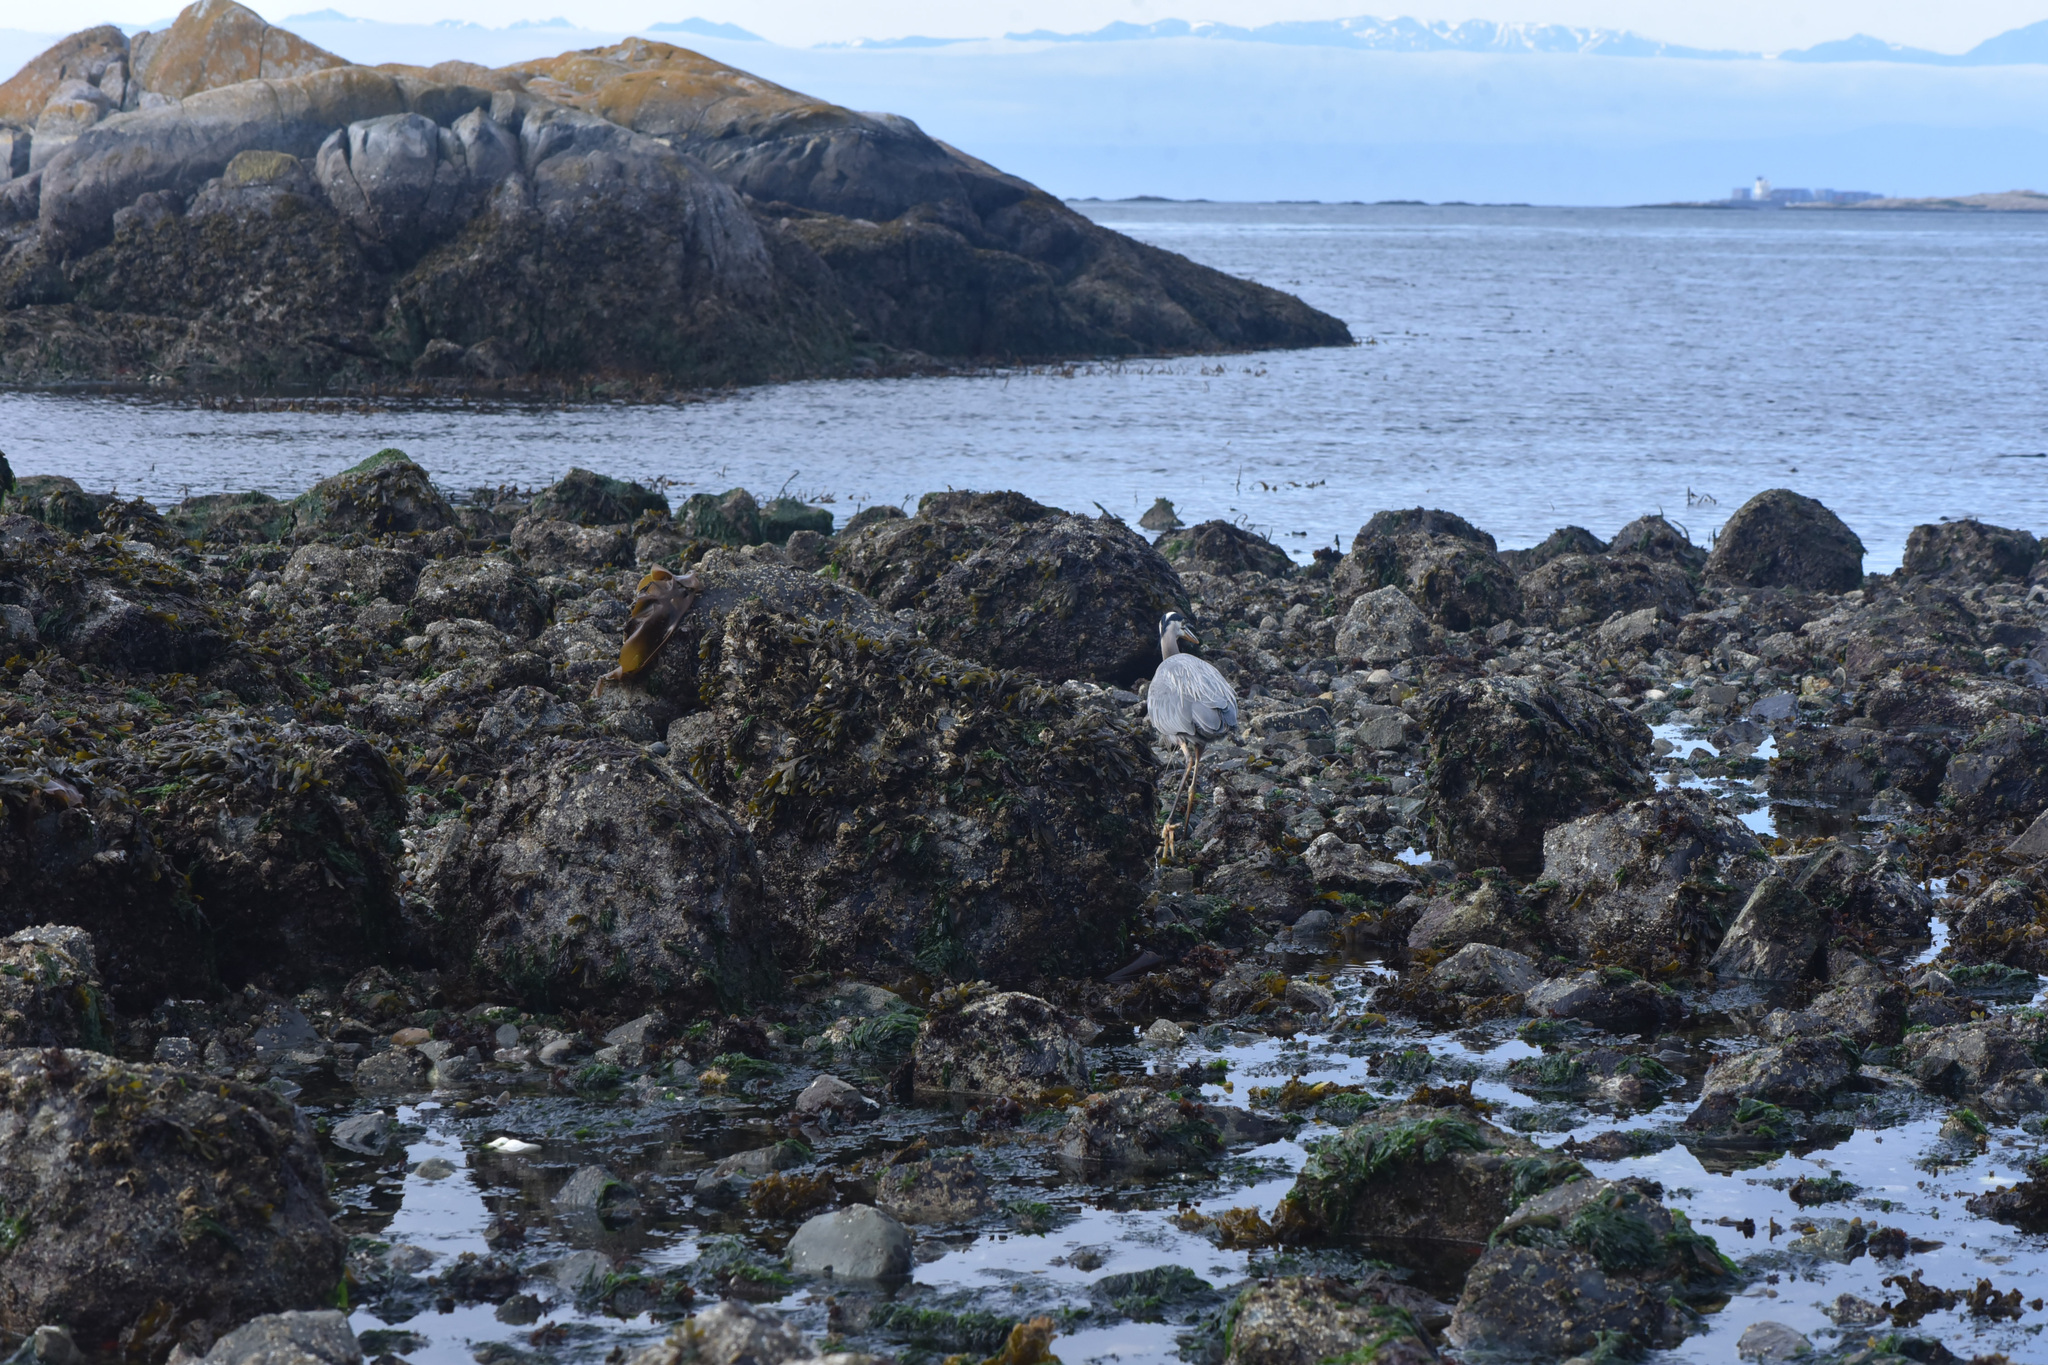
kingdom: Animalia
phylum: Chordata
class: Aves
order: Pelecaniformes
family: Ardeidae
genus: Ardea
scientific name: Ardea herodias
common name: Great blue heron
